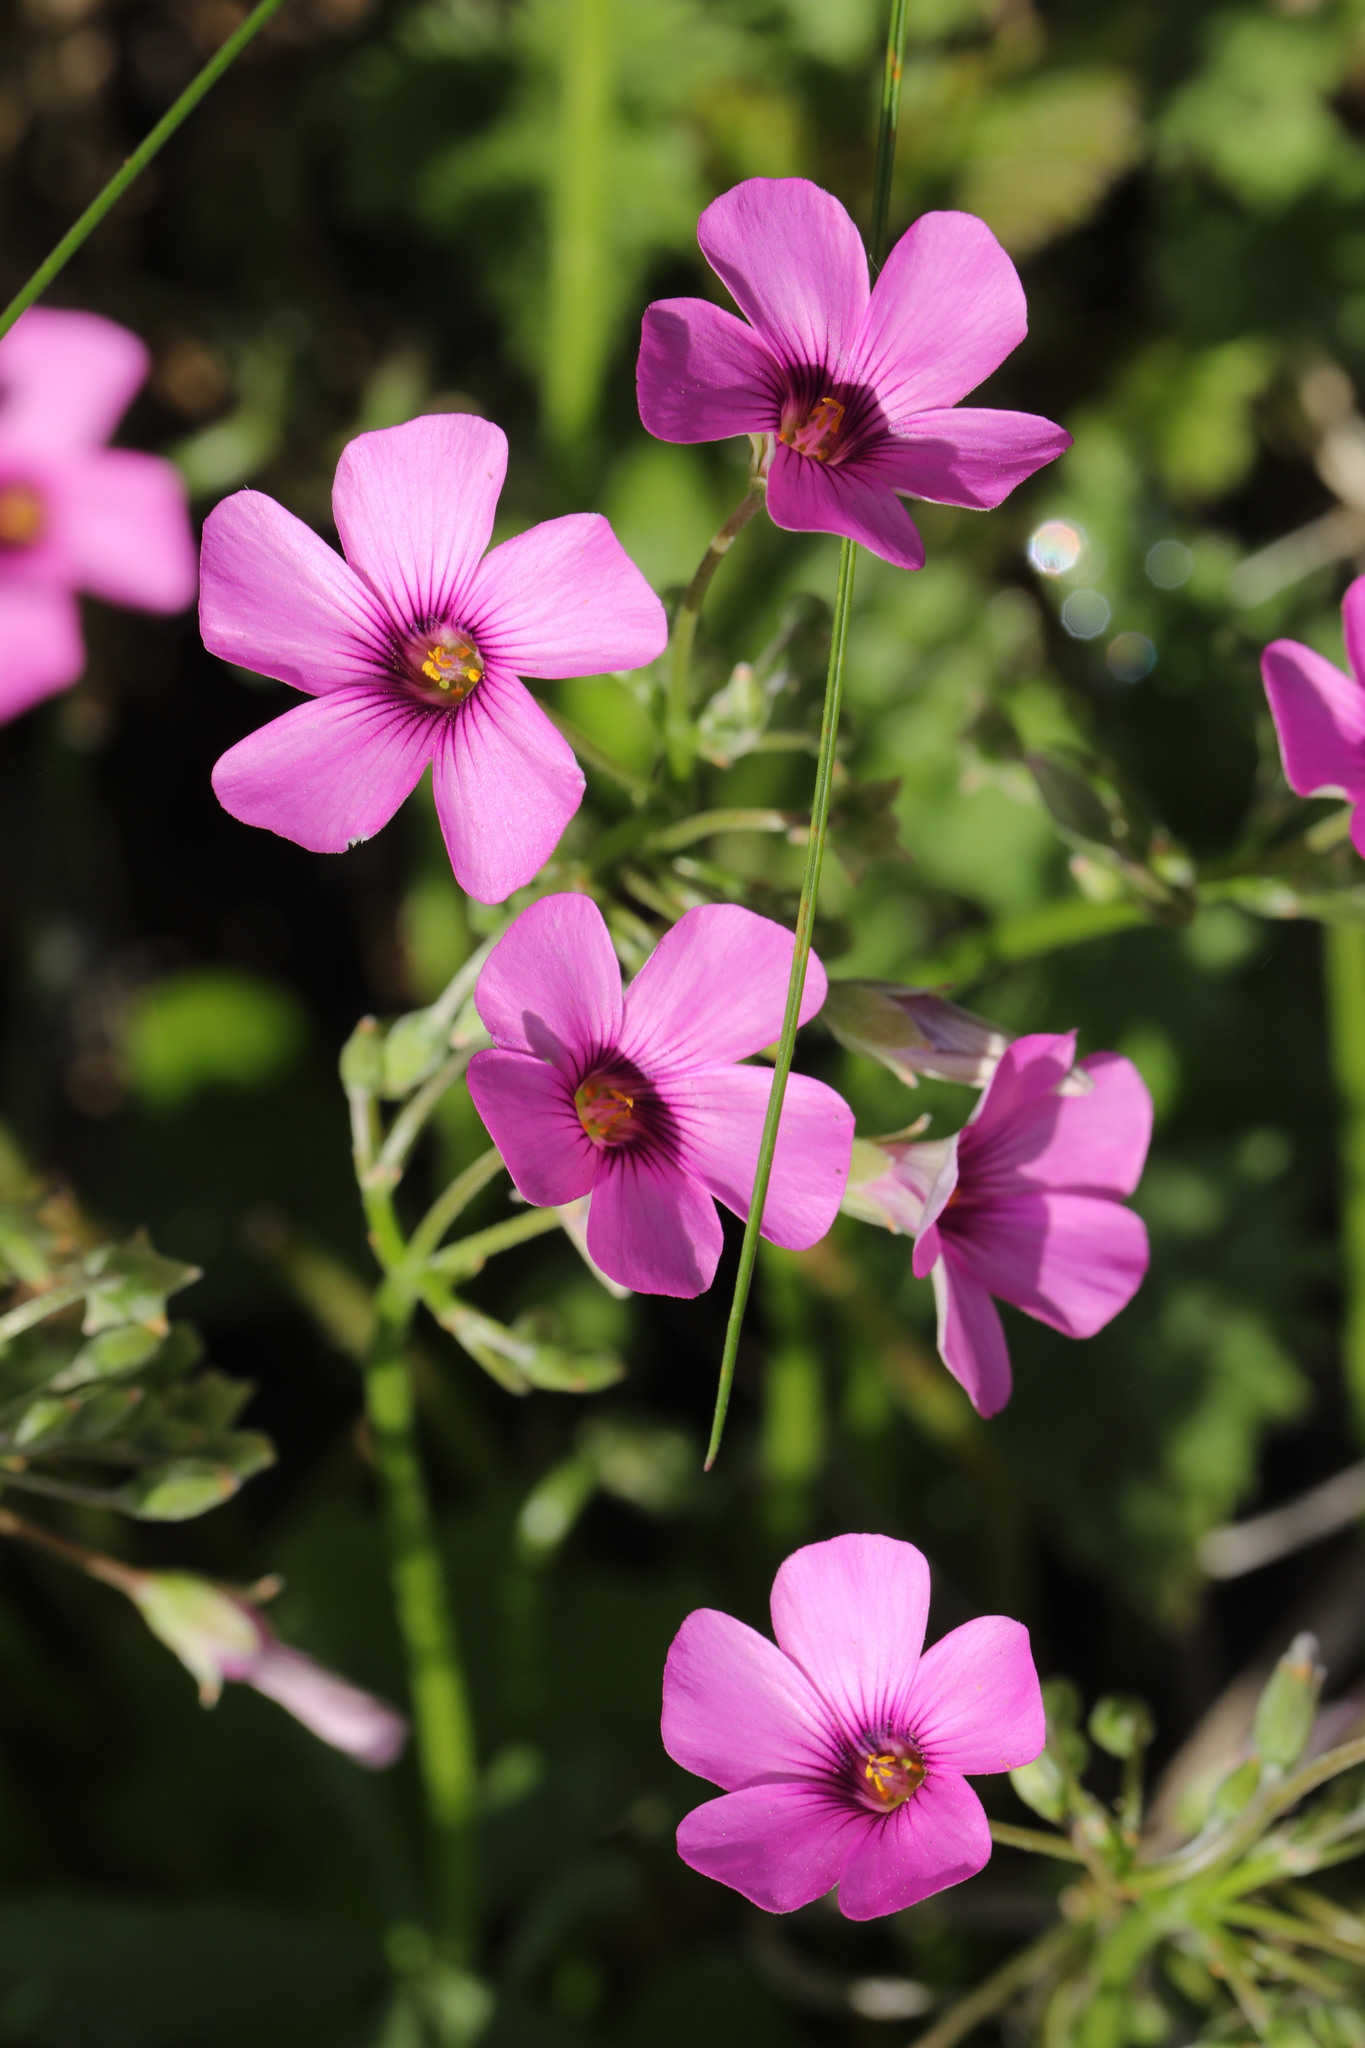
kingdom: Plantae
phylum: Tracheophyta
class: Magnoliopsida
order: Oxalidales
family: Oxalidaceae
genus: Oxalis
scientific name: Oxalis articulata
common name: Pink-sorrel
